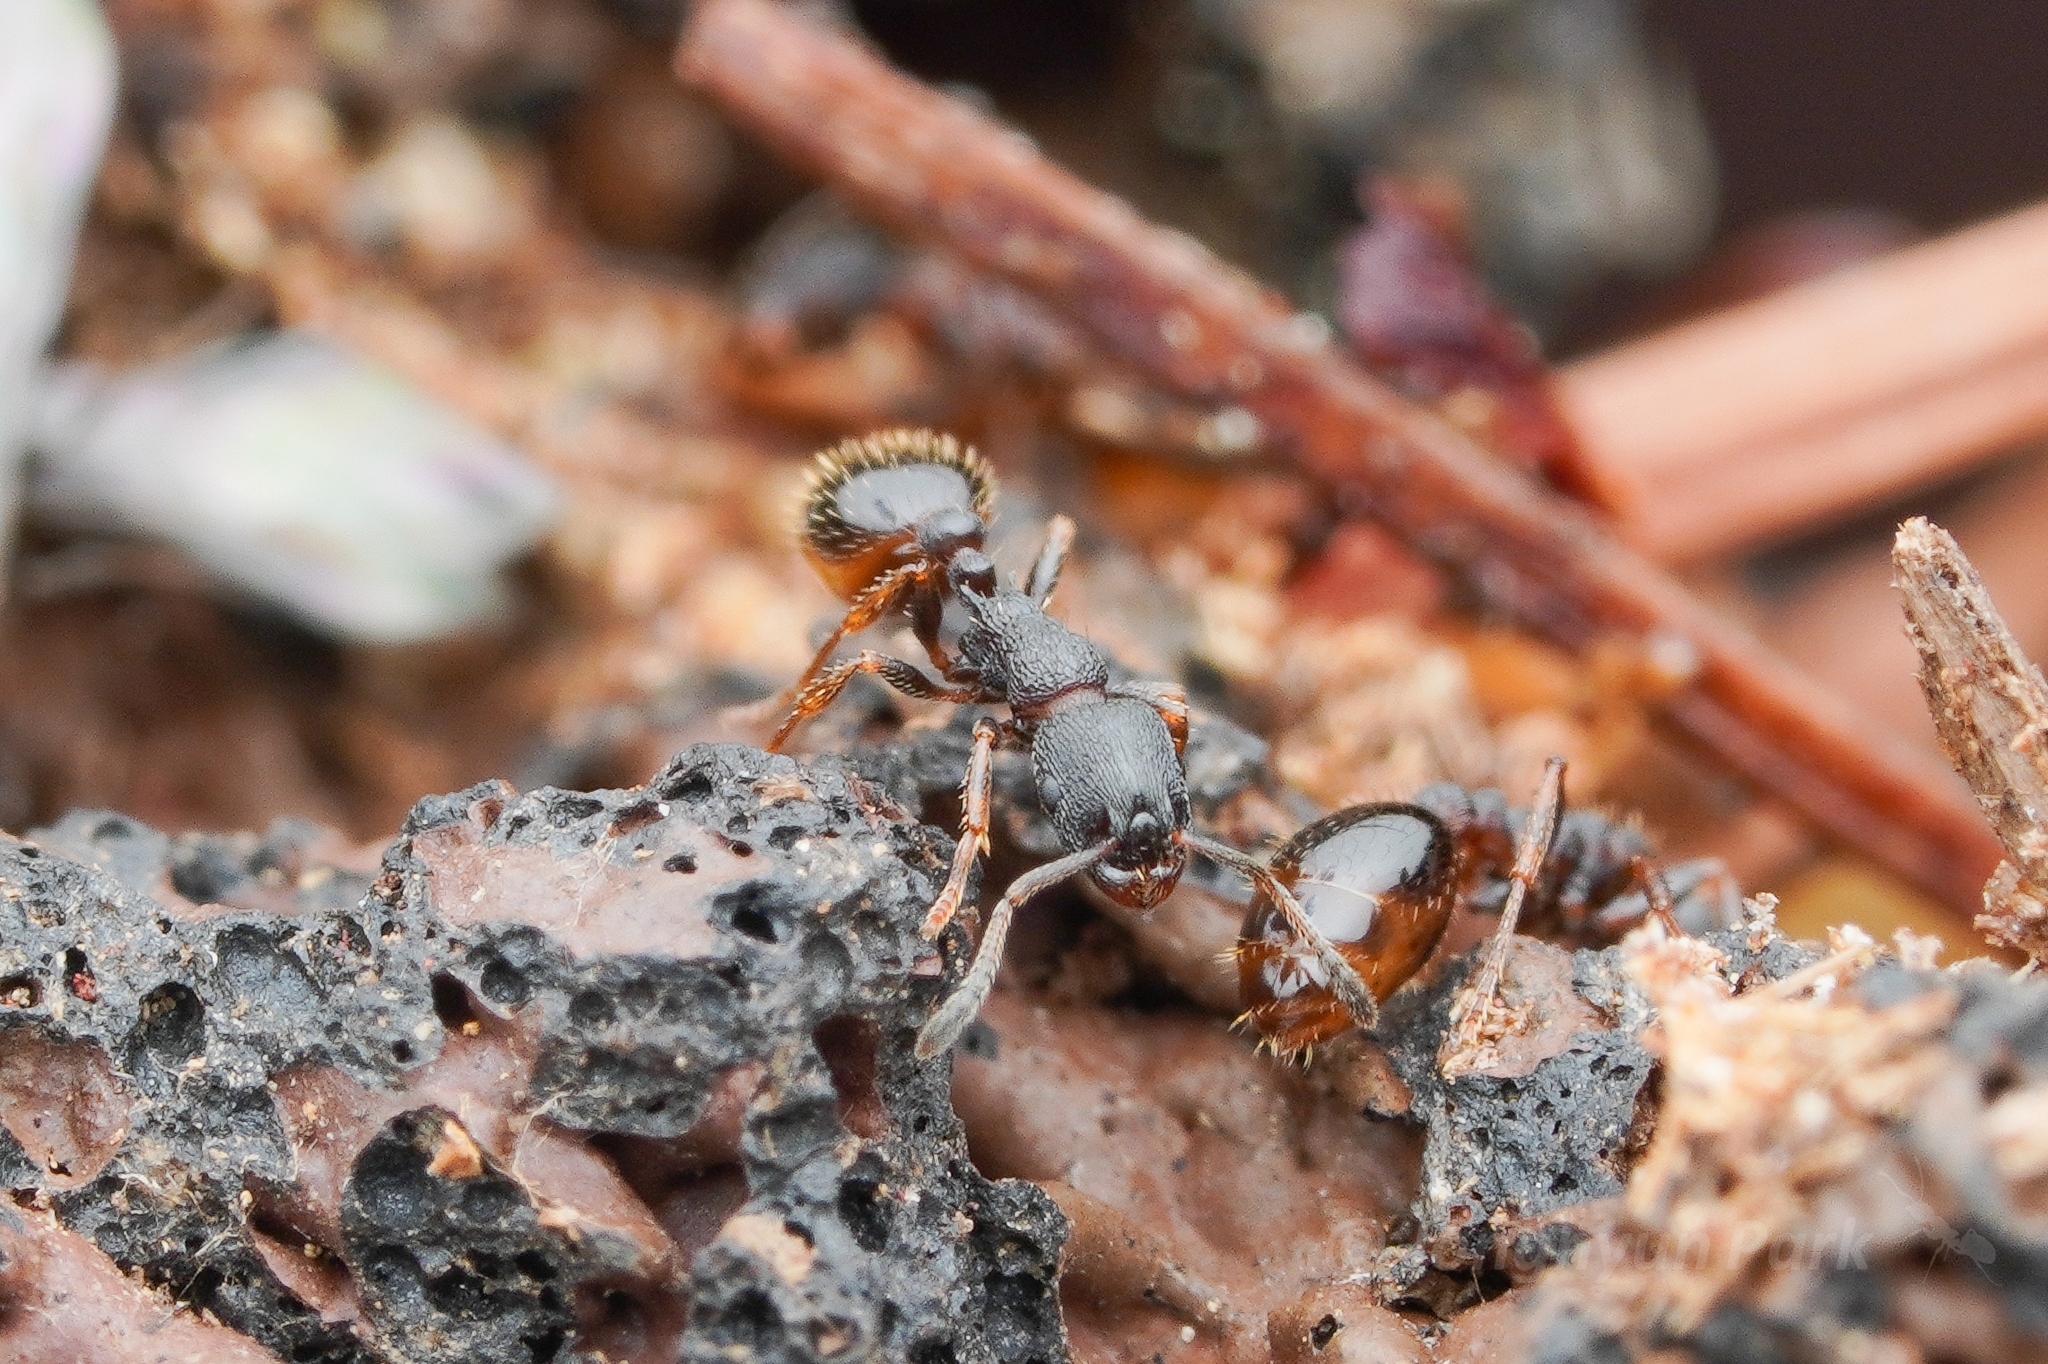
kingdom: Animalia
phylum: Arthropoda
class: Insecta
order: Hymenoptera
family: Formicidae
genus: Leptothorax
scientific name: Leptothorax acervorum
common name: Slender ant
